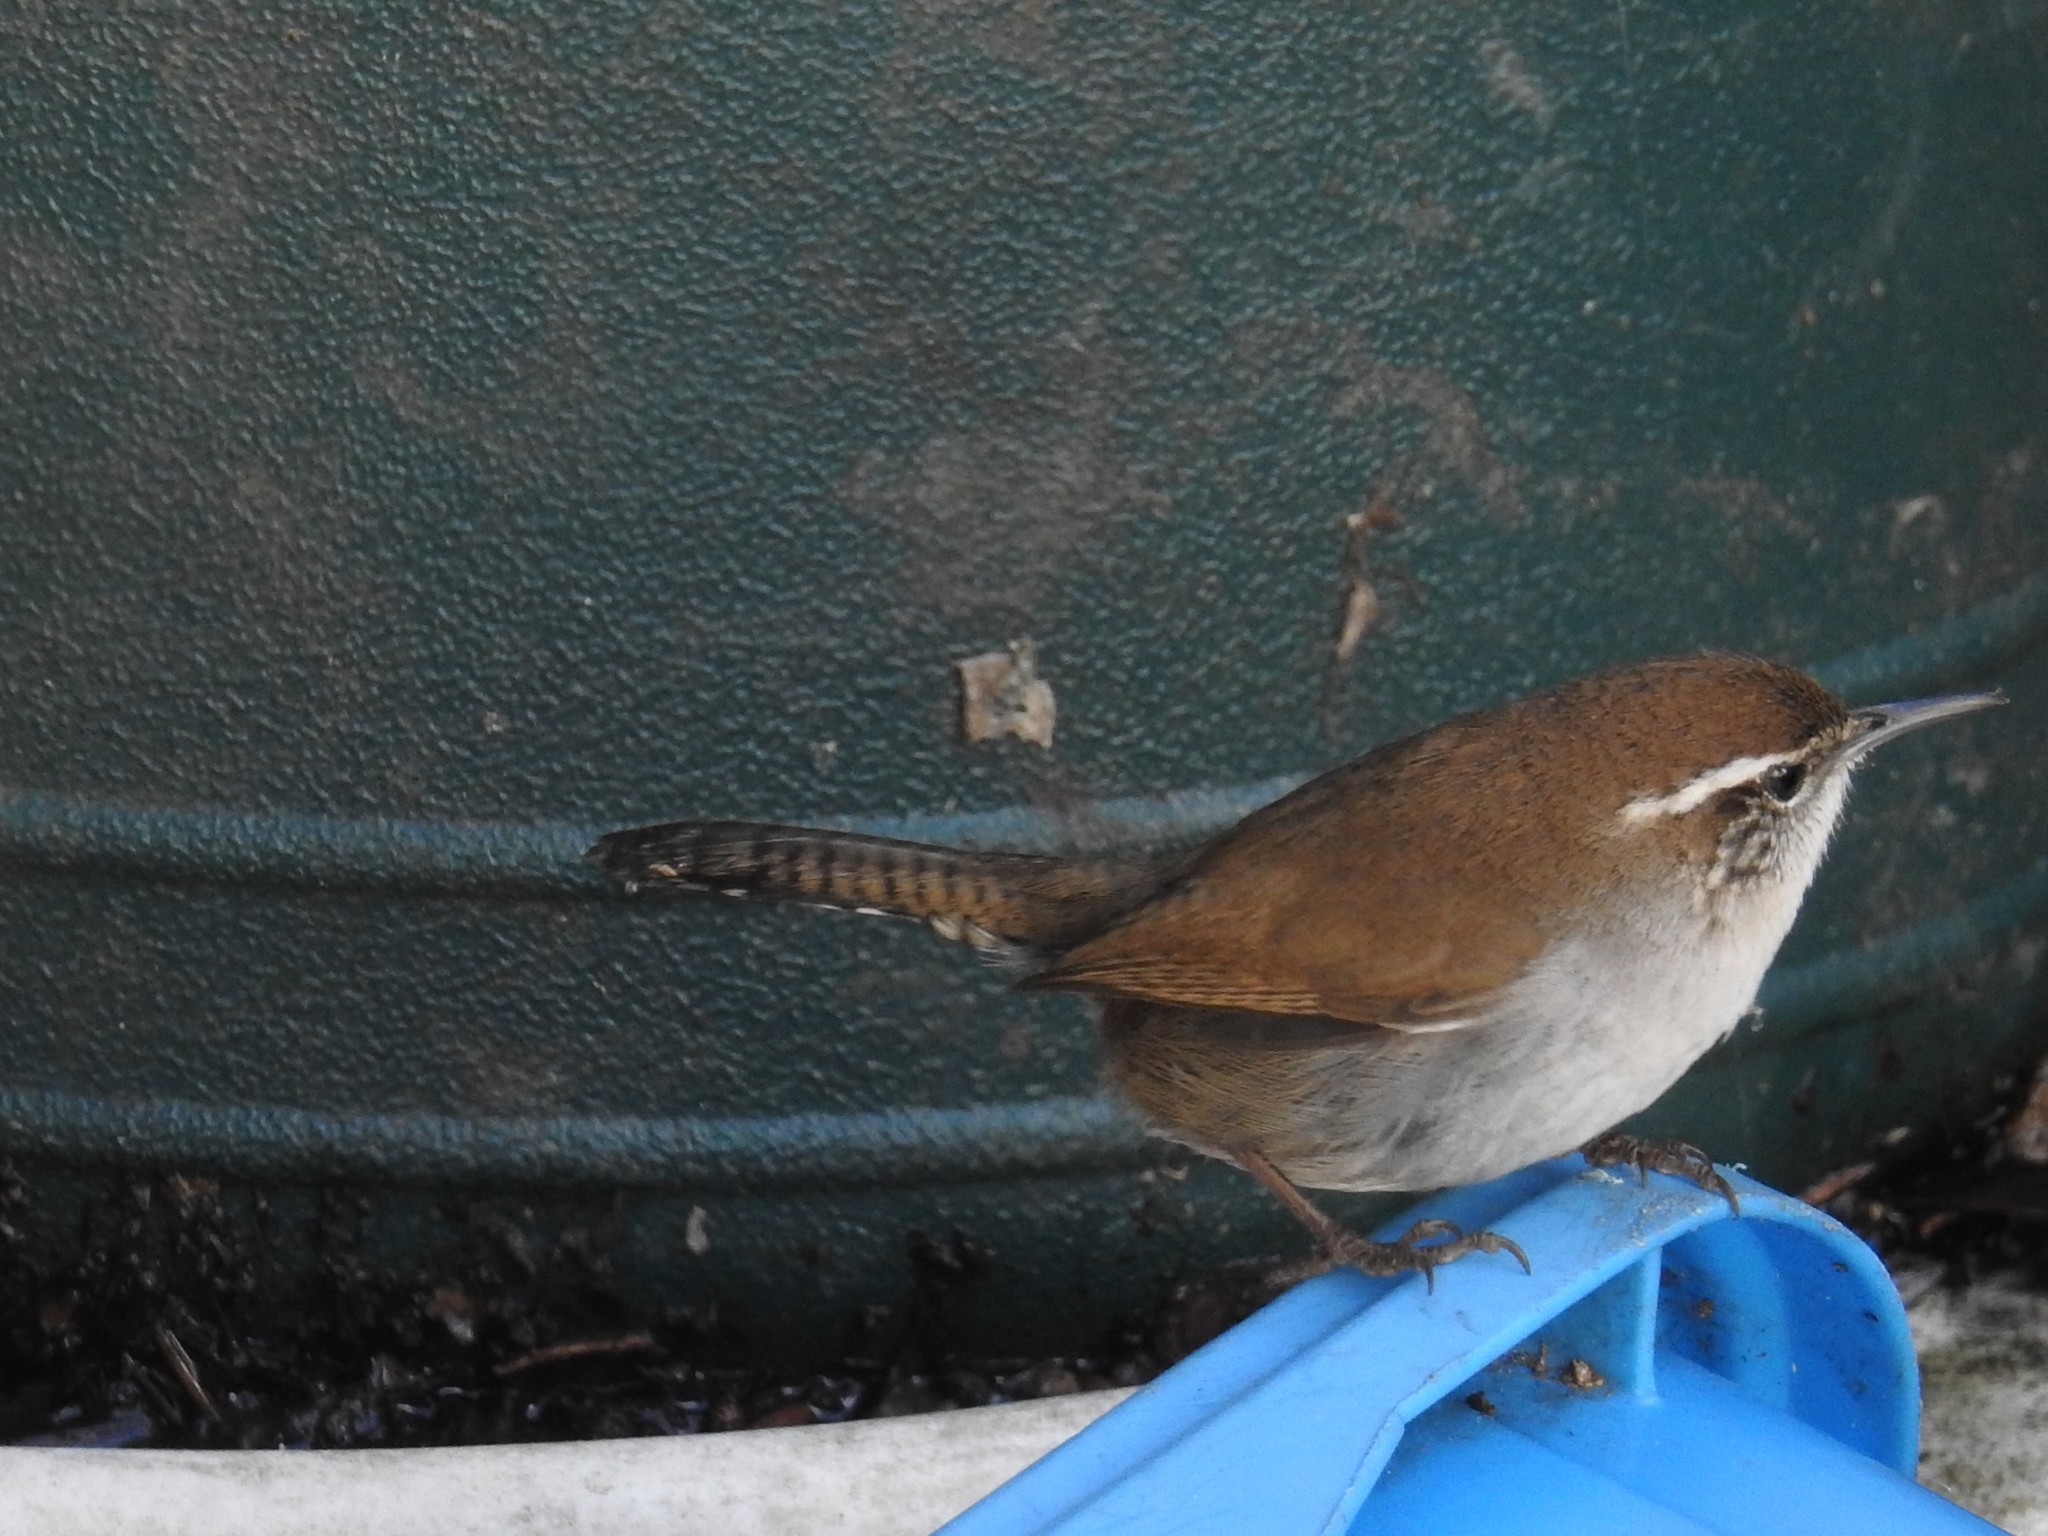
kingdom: Animalia
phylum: Chordata
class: Aves
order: Passeriformes
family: Troglodytidae
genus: Thryomanes
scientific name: Thryomanes bewickii
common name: Bewick's wren
